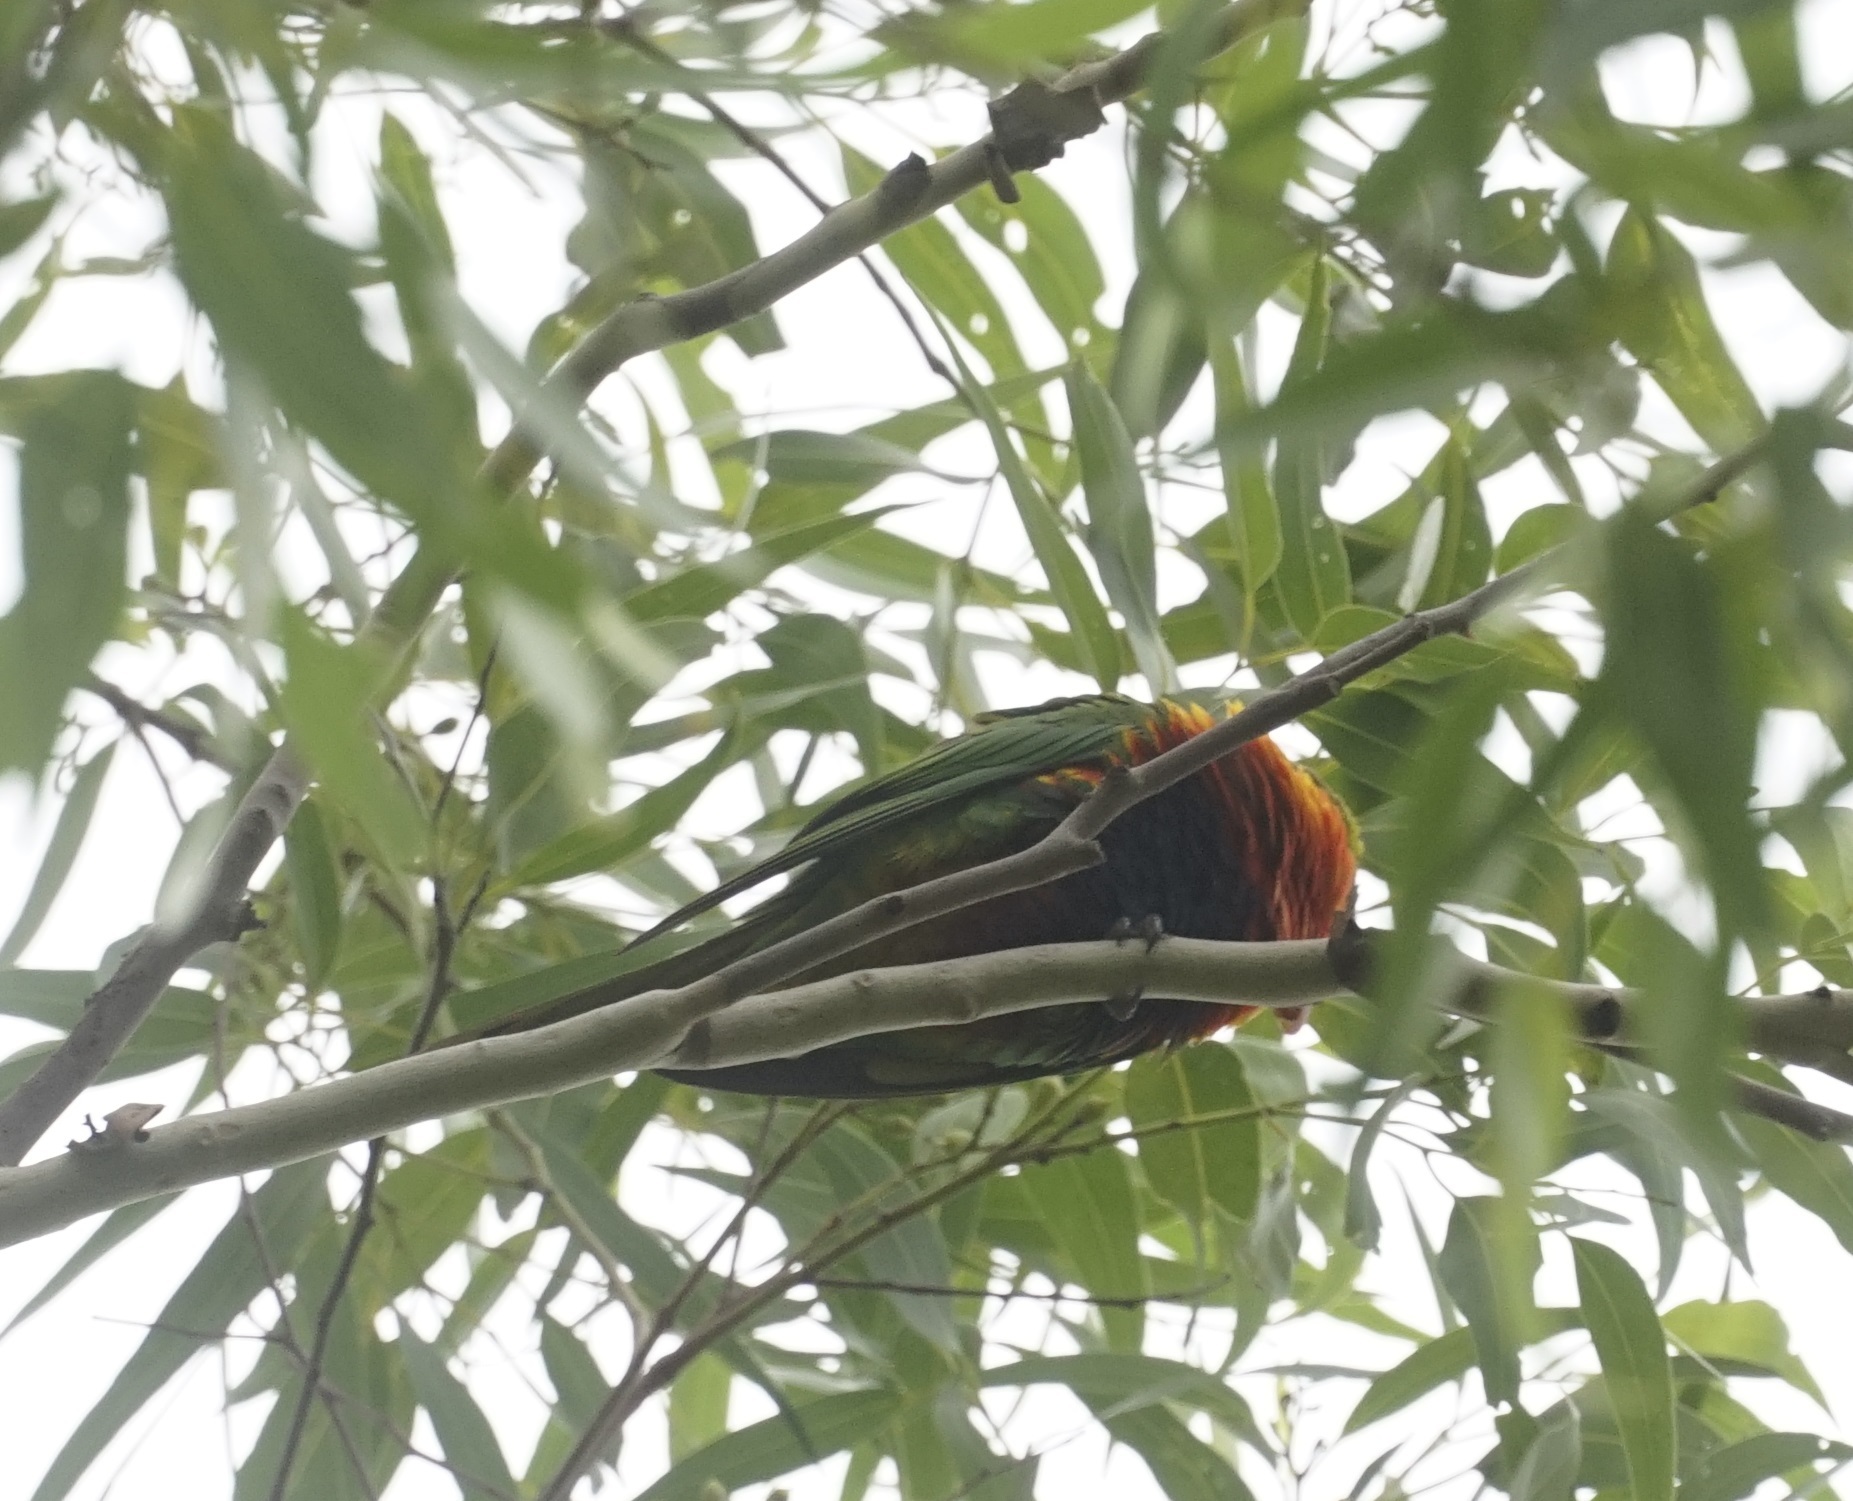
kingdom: Animalia
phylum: Chordata
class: Aves
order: Psittaciformes
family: Psittacidae
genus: Trichoglossus
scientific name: Trichoglossus haematodus
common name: Coconut lorikeet
